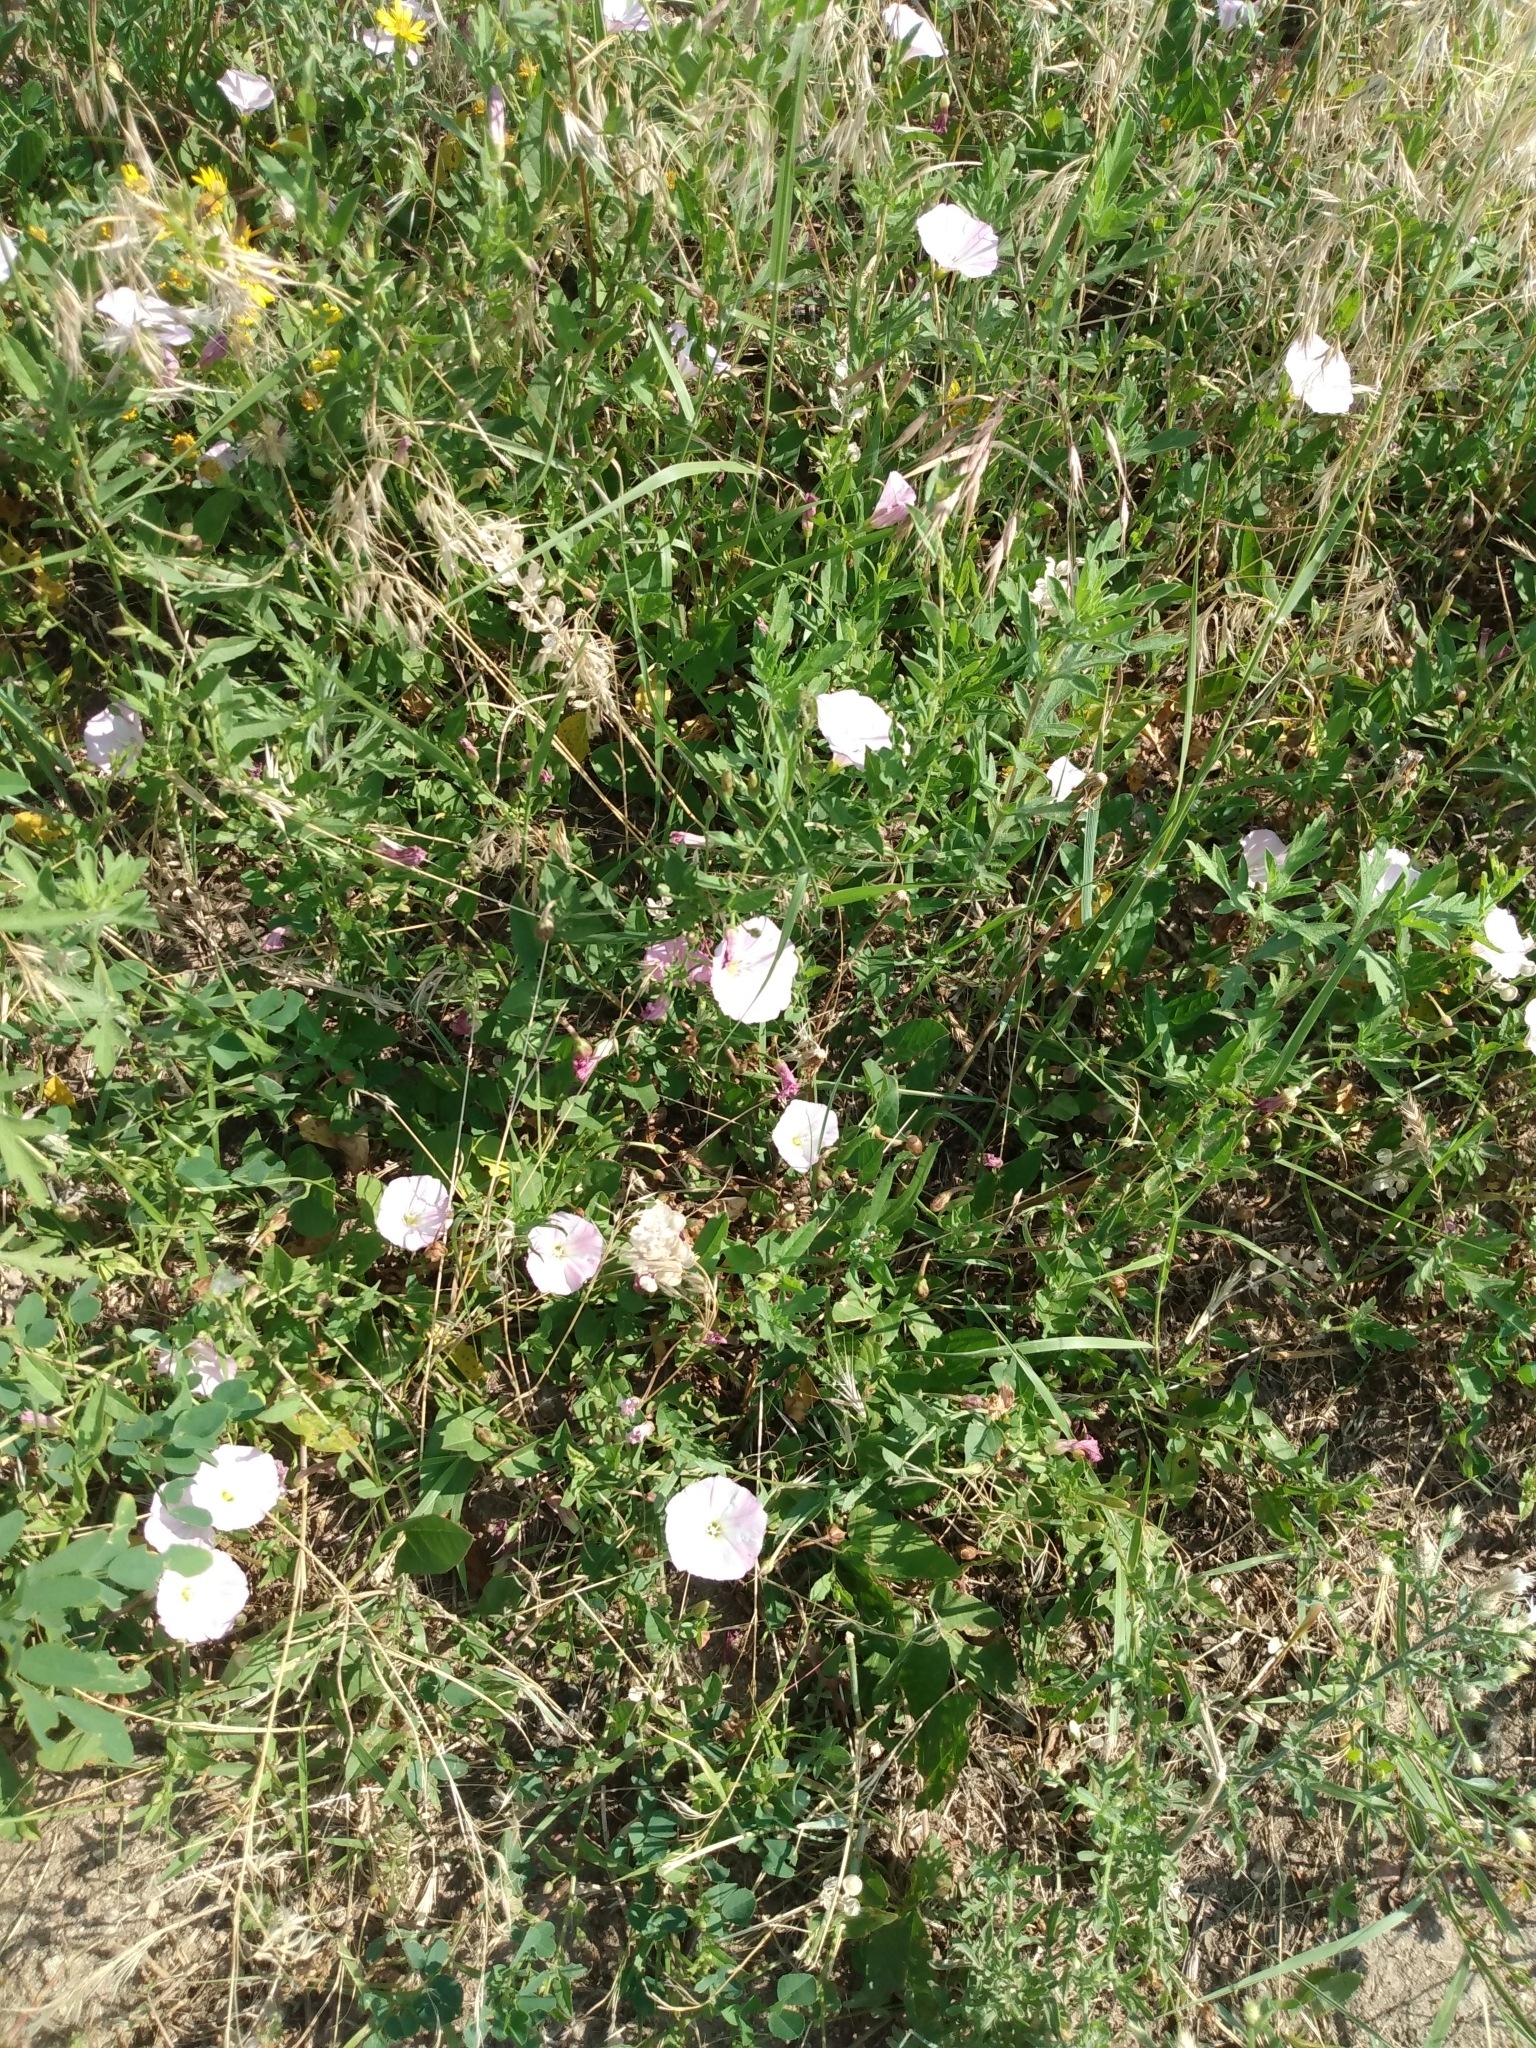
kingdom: Plantae
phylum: Tracheophyta
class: Magnoliopsida
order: Solanales
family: Convolvulaceae
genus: Convolvulus
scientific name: Convolvulus arvensis
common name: Field bindweed
